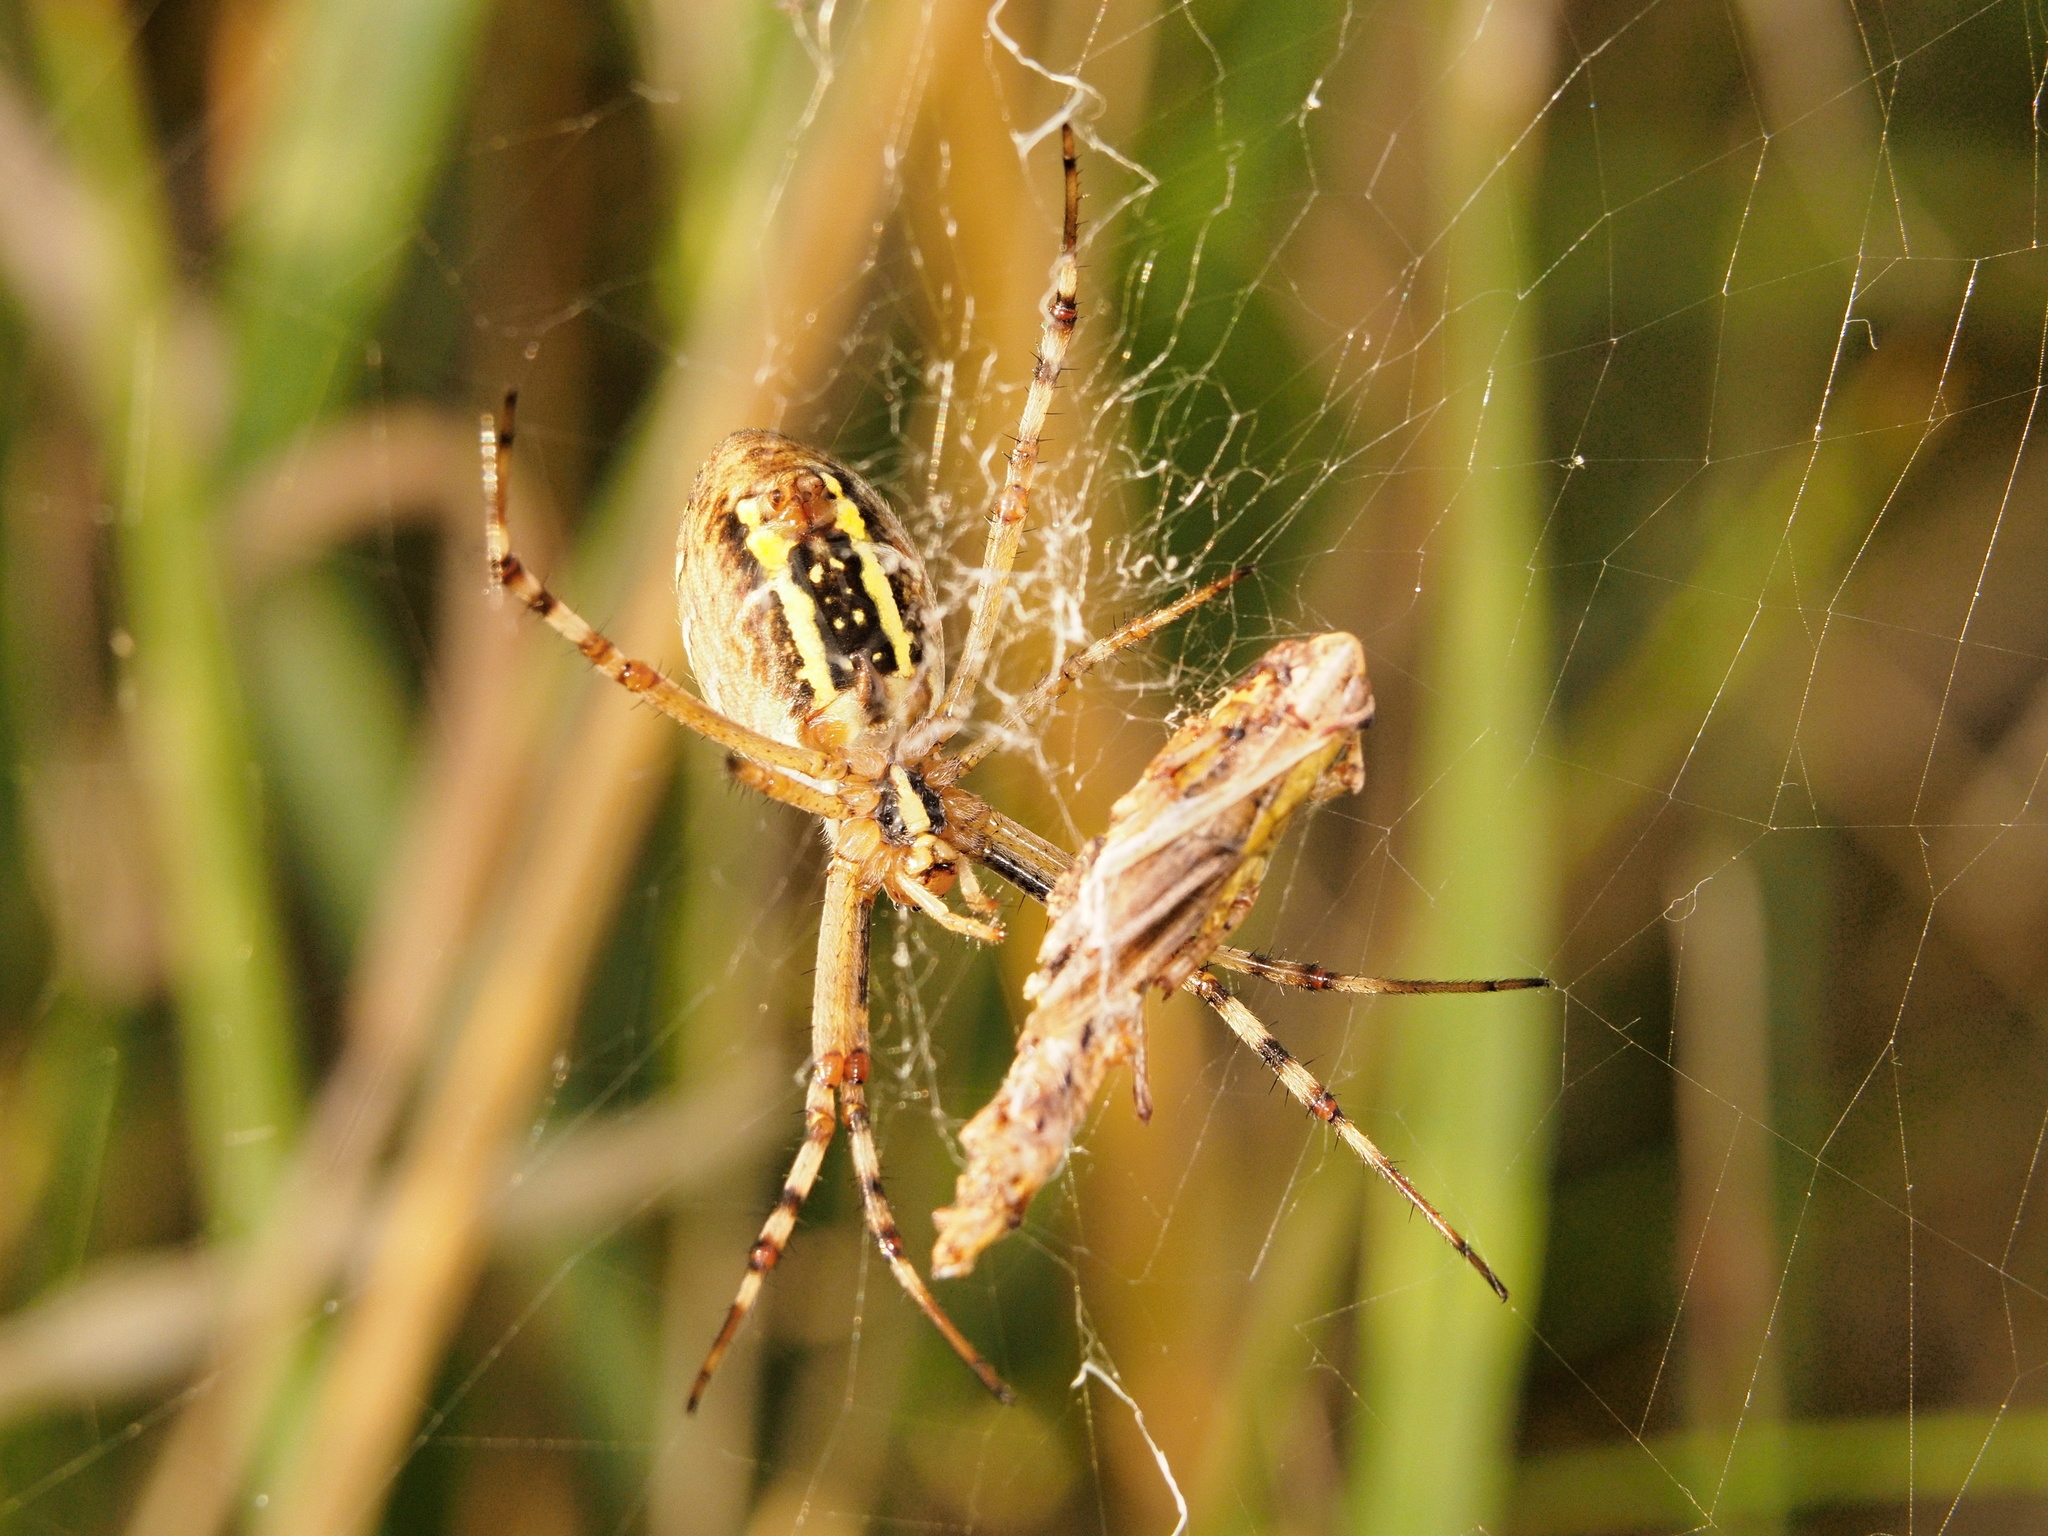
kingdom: Animalia
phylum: Arthropoda
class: Arachnida
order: Araneae
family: Araneidae
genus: Argiope
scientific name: Argiope bruennichi
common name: Wasp spider
